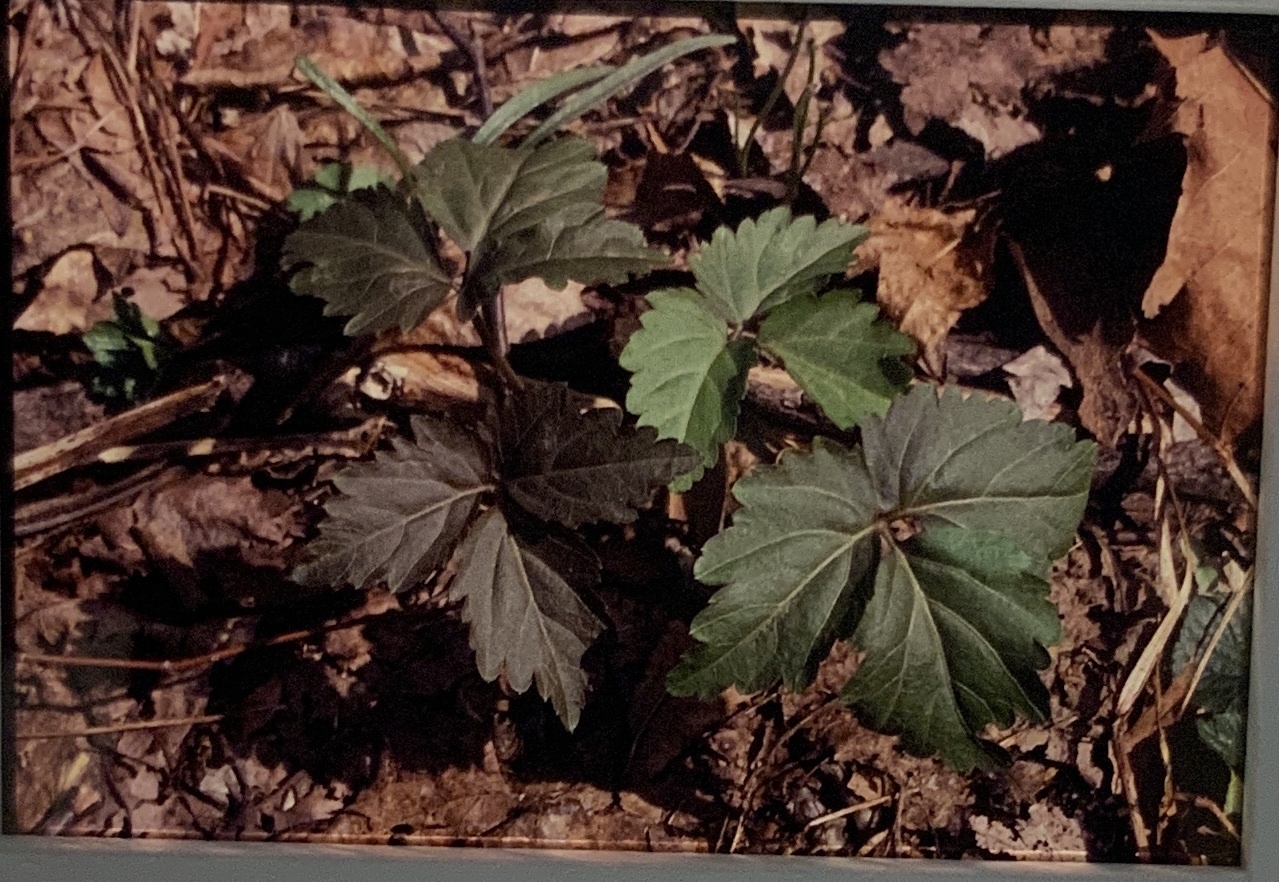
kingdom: Plantae
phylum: Tracheophyta
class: Magnoliopsida
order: Brassicales
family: Brassicaceae
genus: Cardamine
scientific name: Cardamine diphylla
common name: Broad-leaved toothwort
